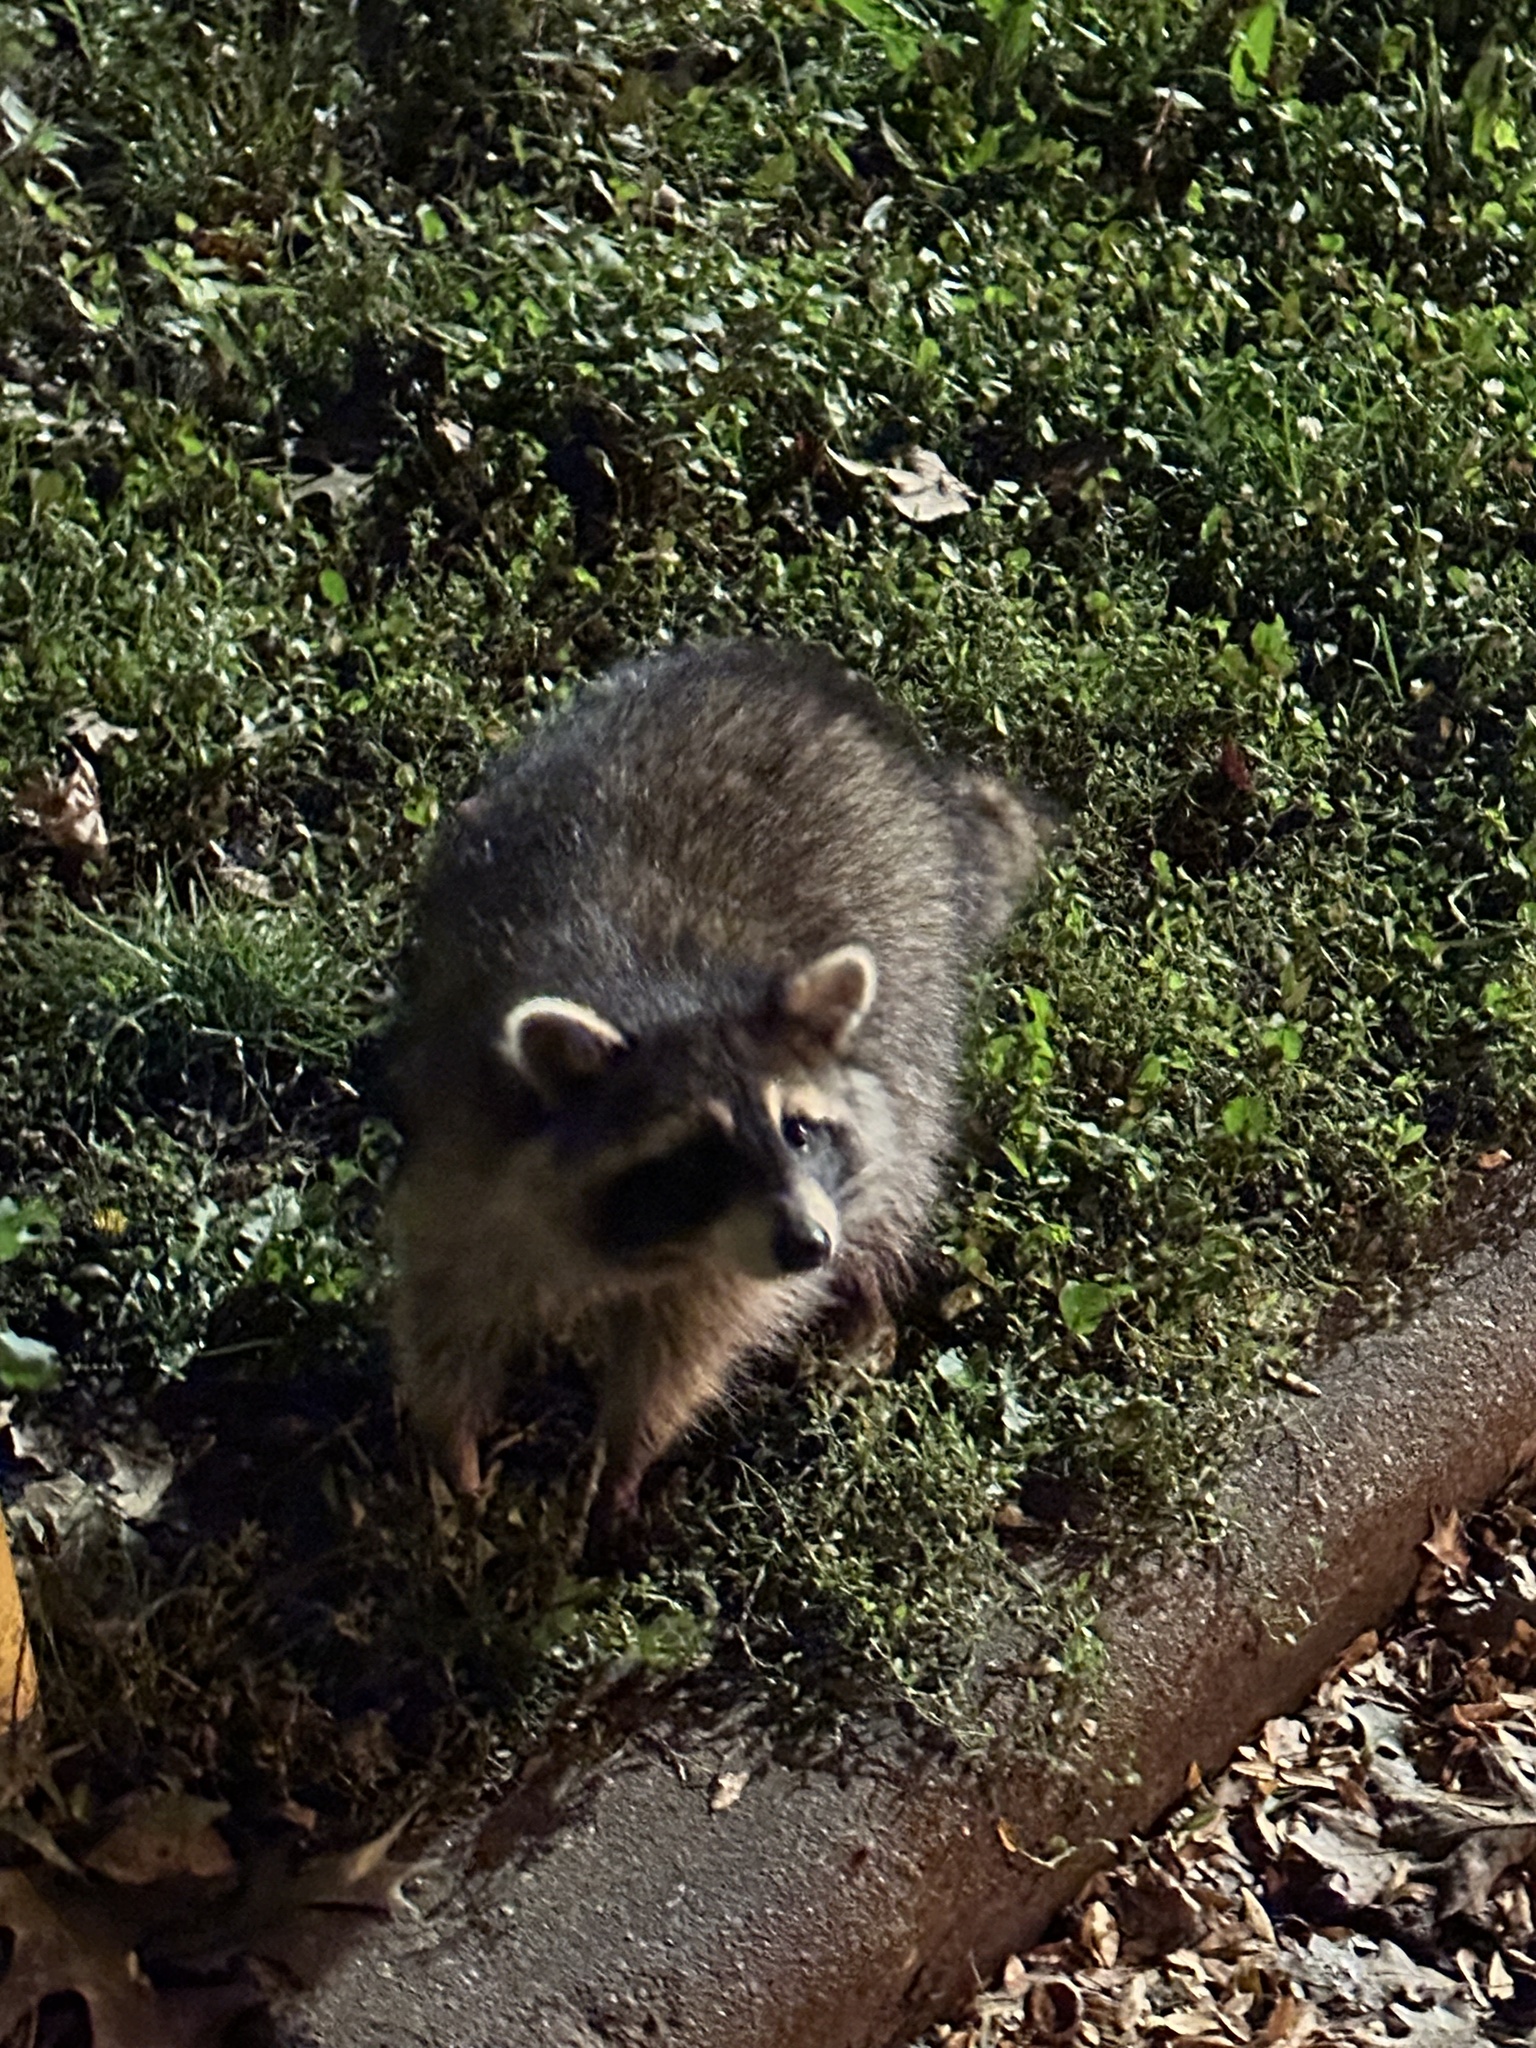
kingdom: Animalia
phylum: Chordata
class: Mammalia
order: Carnivora
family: Procyonidae
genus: Procyon
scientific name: Procyon lotor
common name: Raccoon
